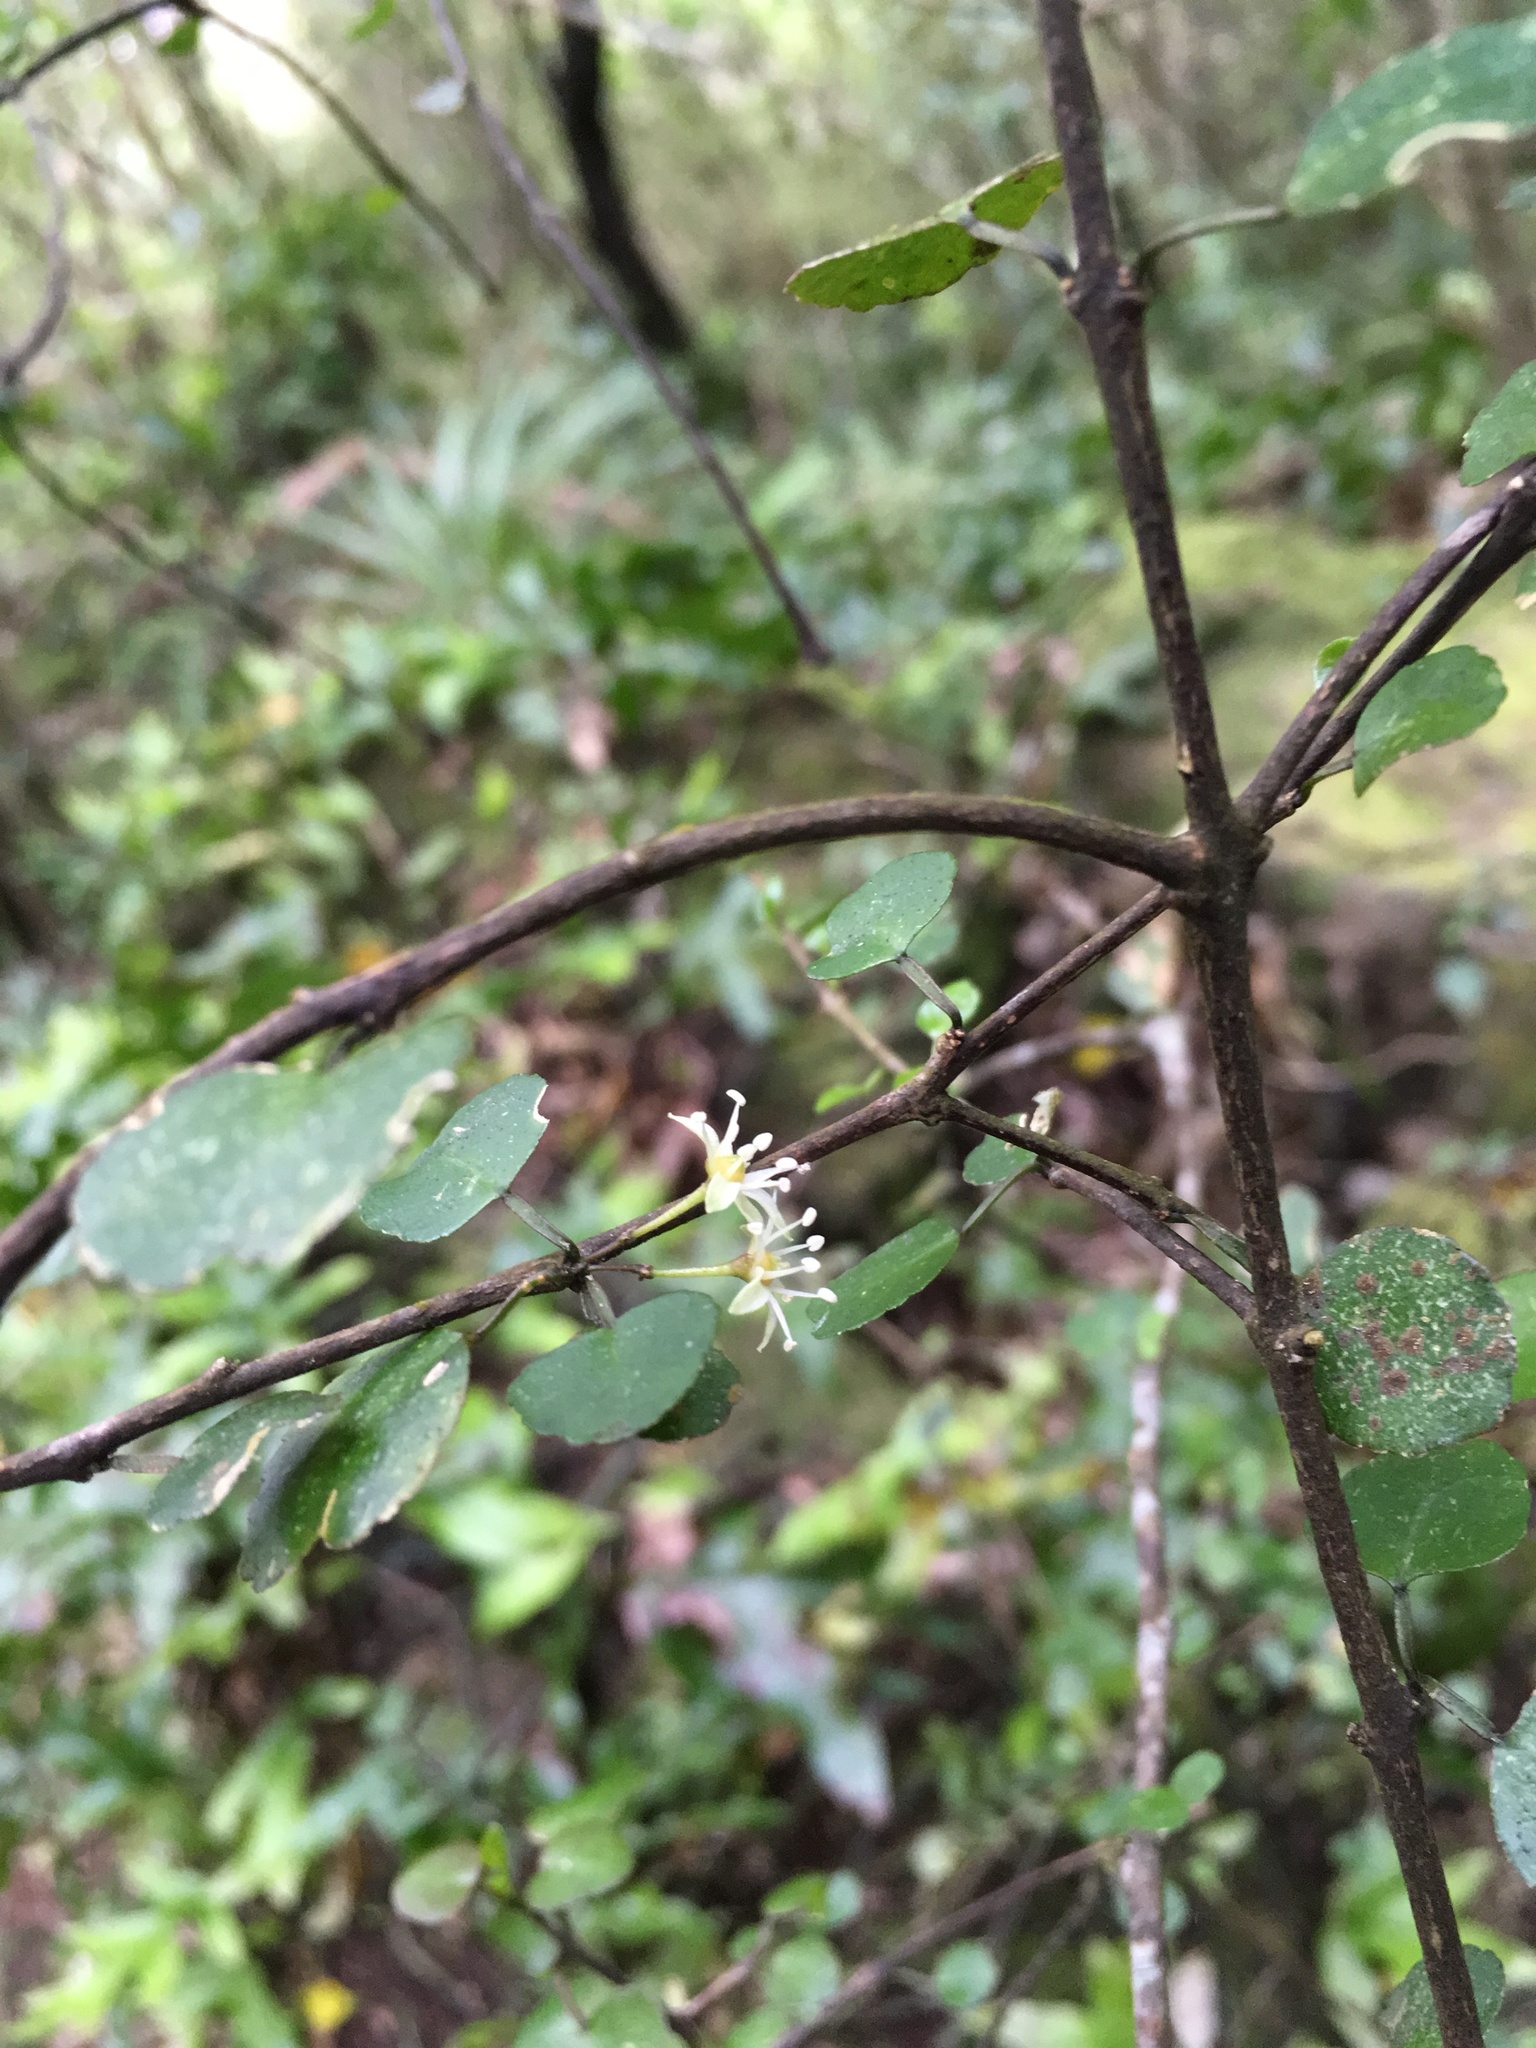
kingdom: Plantae
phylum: Tracheophyta
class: Magnoliopsida
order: Sapindales
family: Rutaceae
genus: Melicope
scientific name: Melicope simplex
